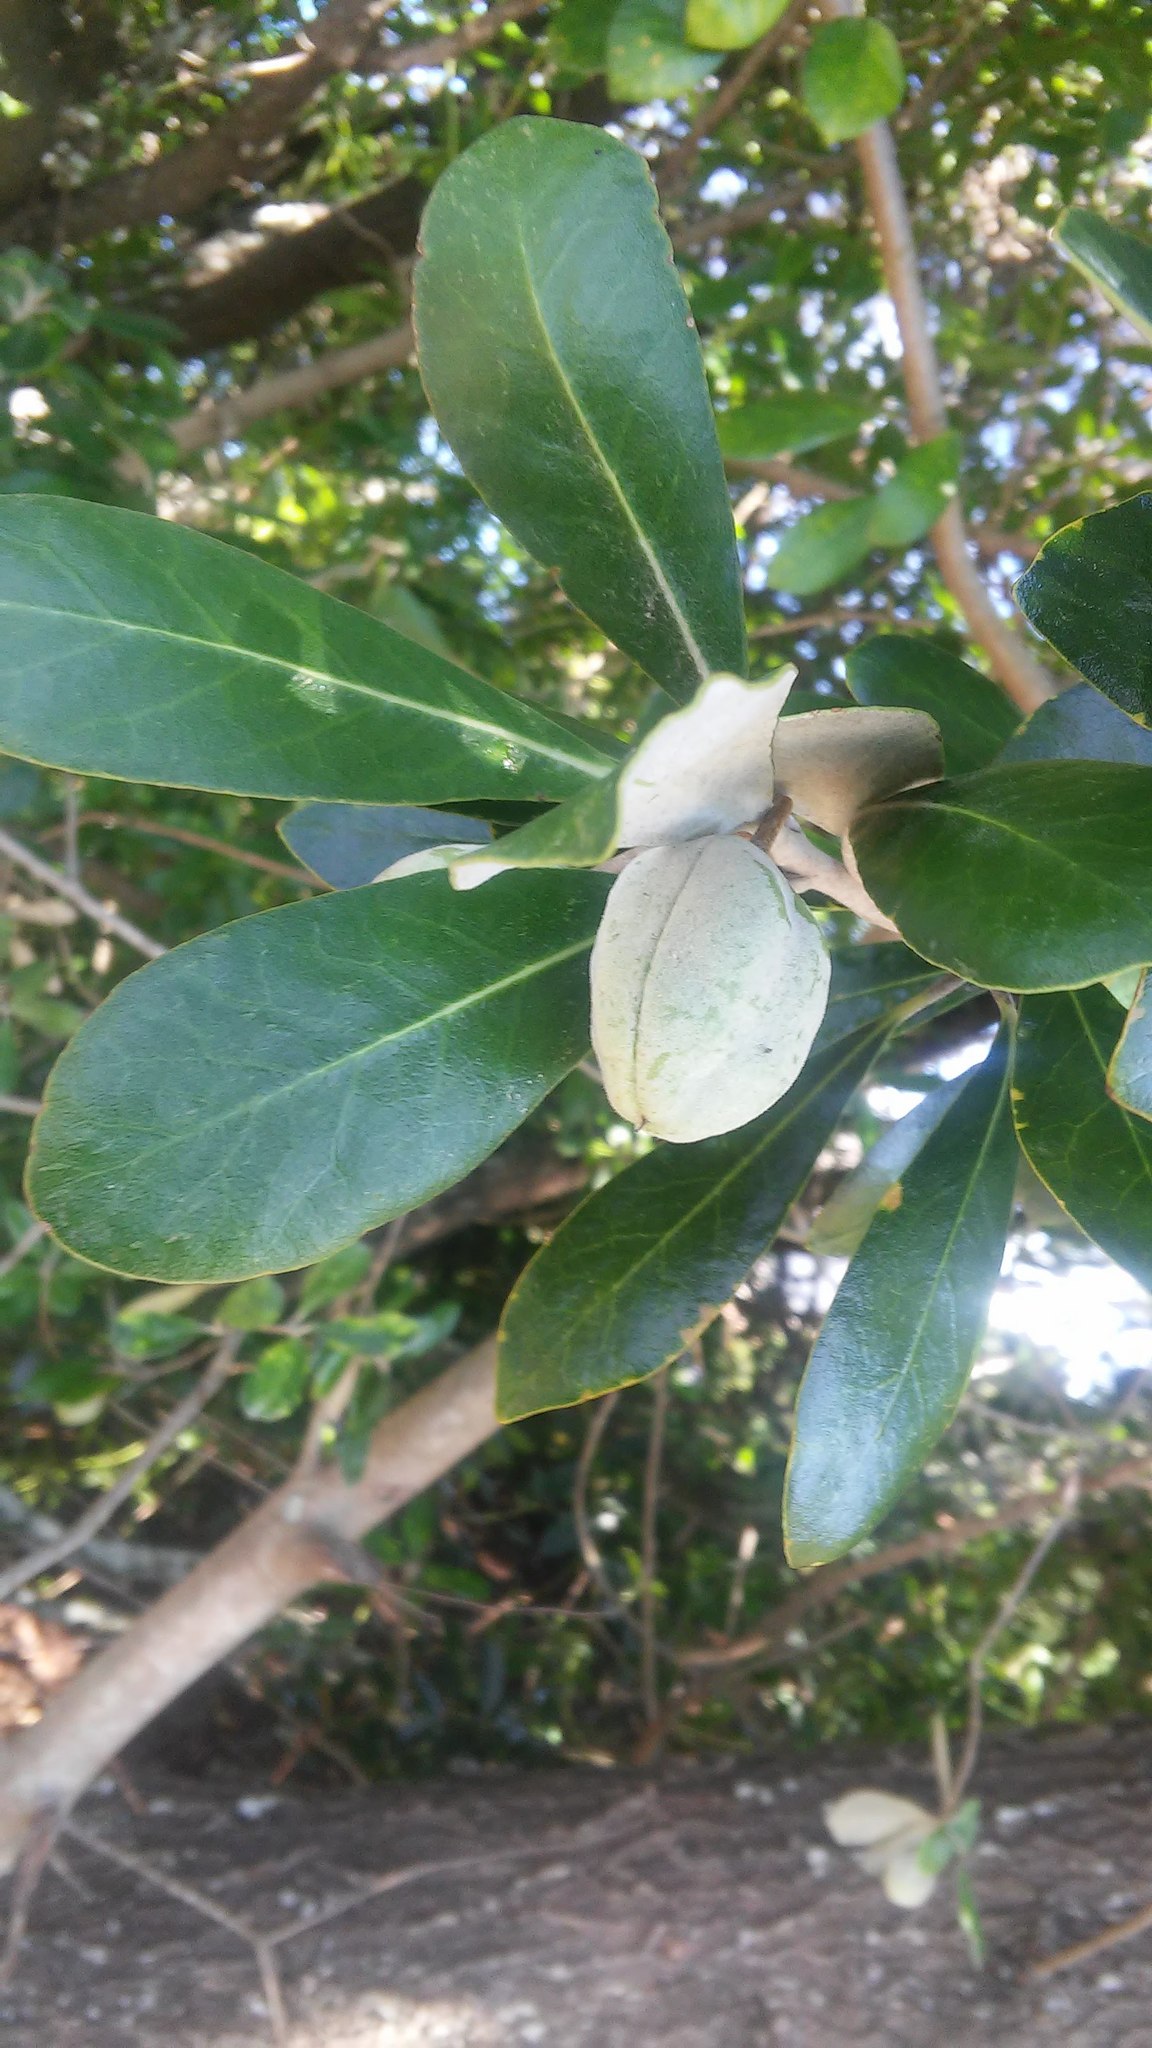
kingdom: Plantae
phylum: Tracheophyta
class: Magnoliopsida
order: Apiales
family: Pittosporaceae
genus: Pittosporum
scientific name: Pittosporum crassifolium
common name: Karo
